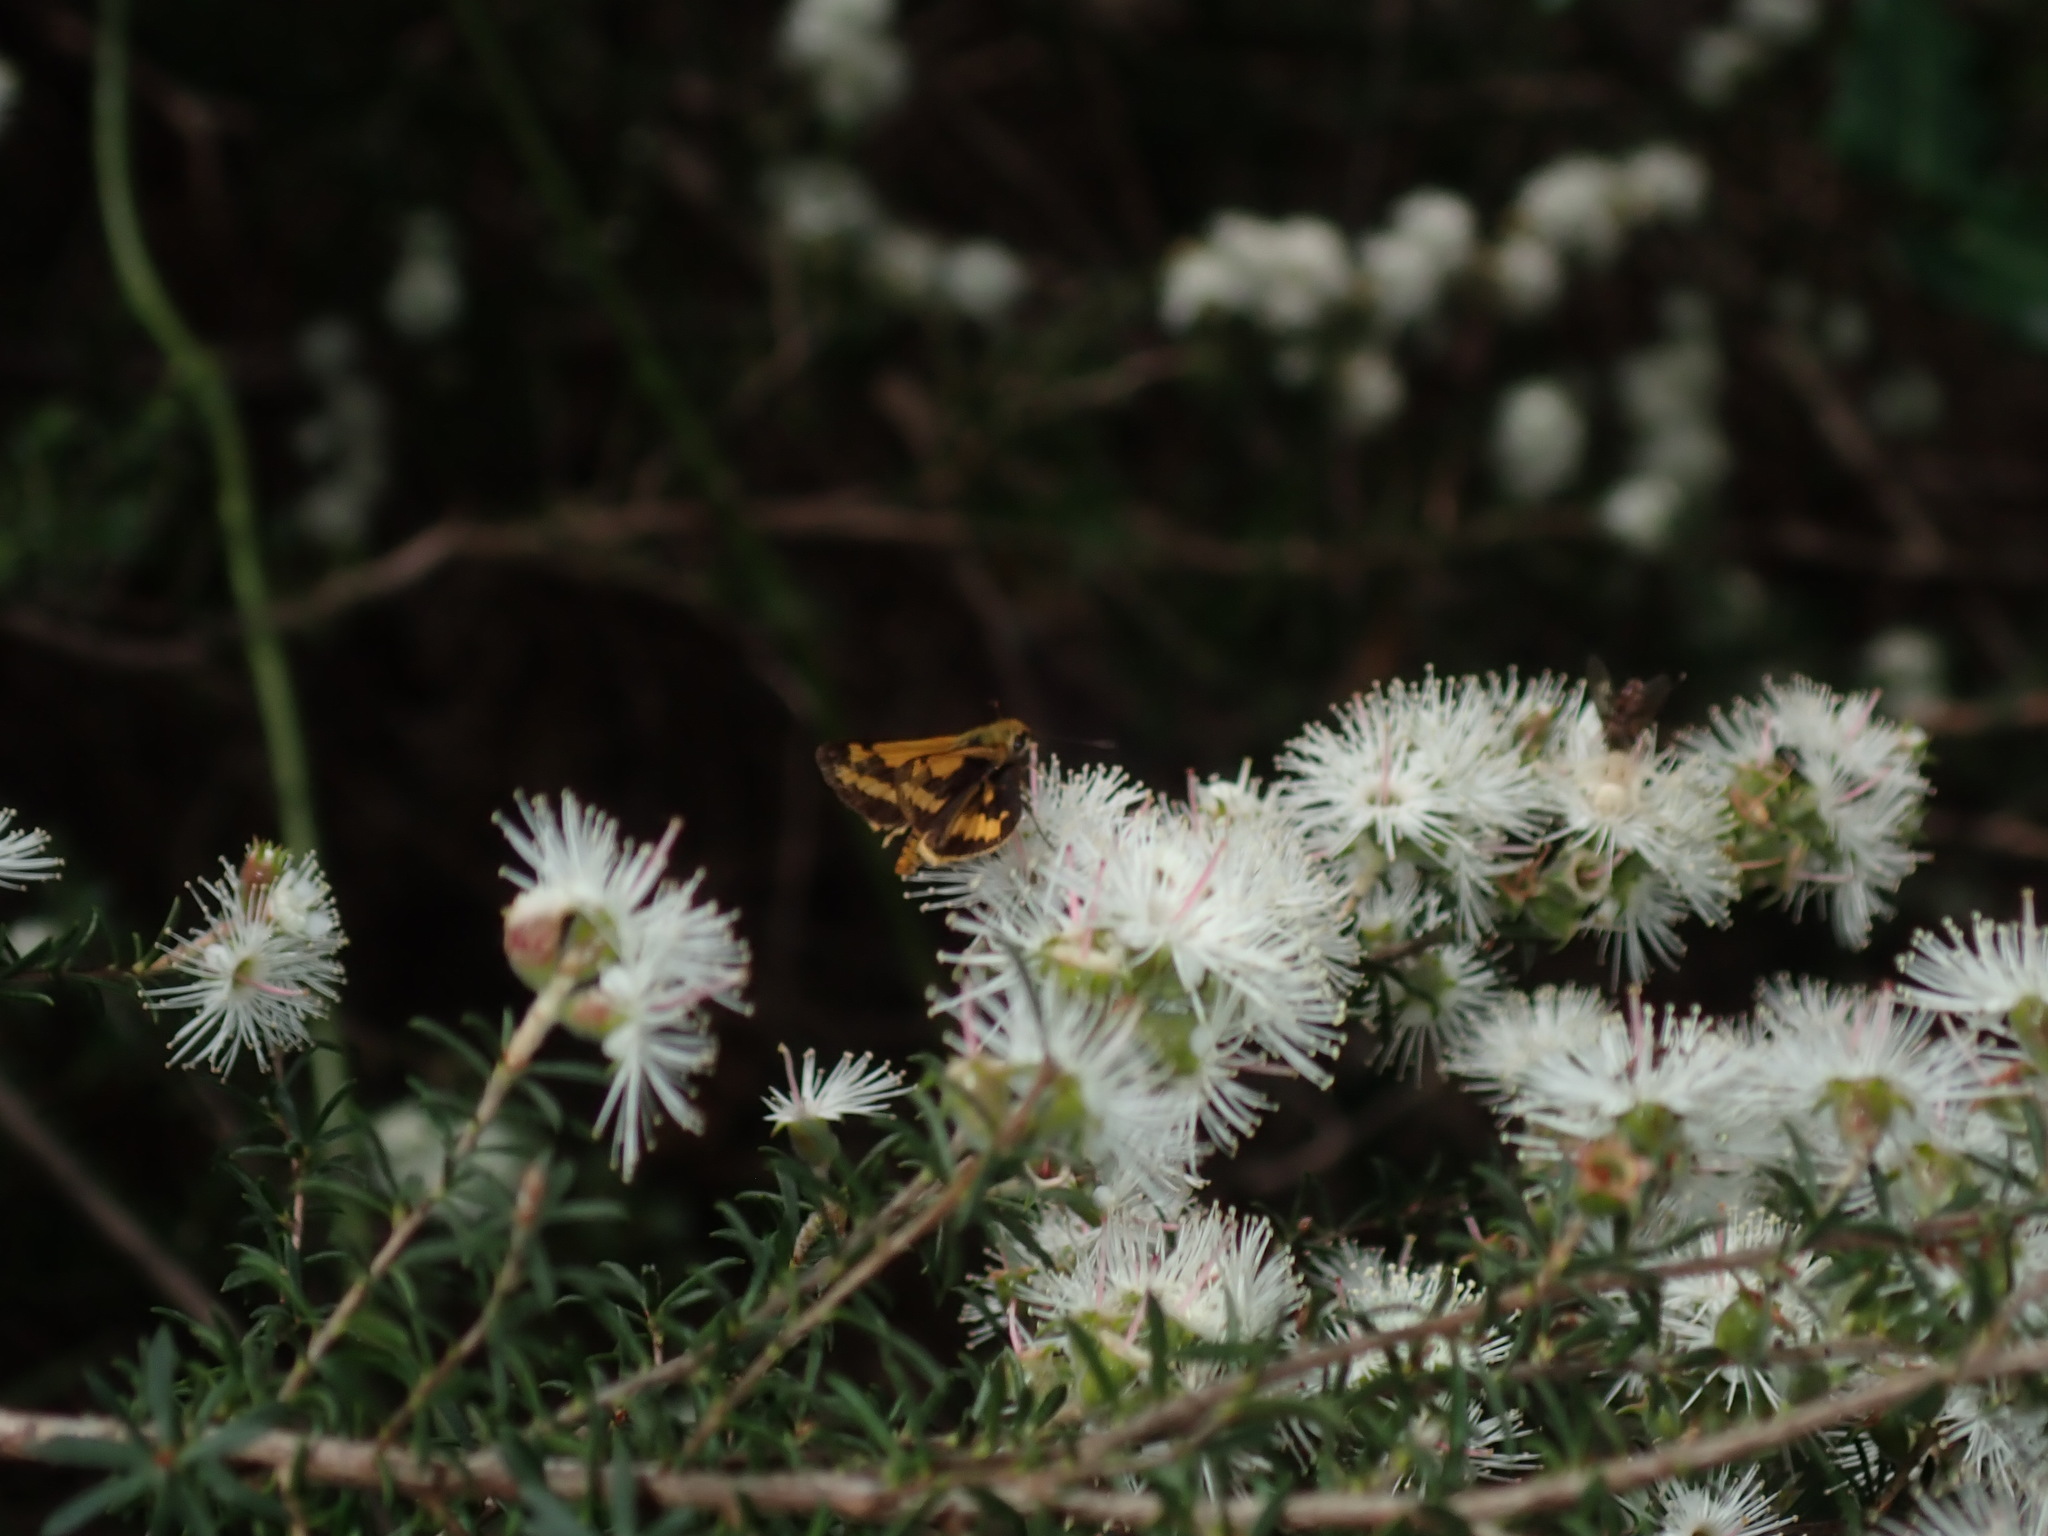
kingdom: Animalia
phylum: Arthropoda
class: Insecta
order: Lepidoptera
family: Hesperiidae
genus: Ocybadistes
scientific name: Ocybadistes walkeri
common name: Yellow-banded dart
